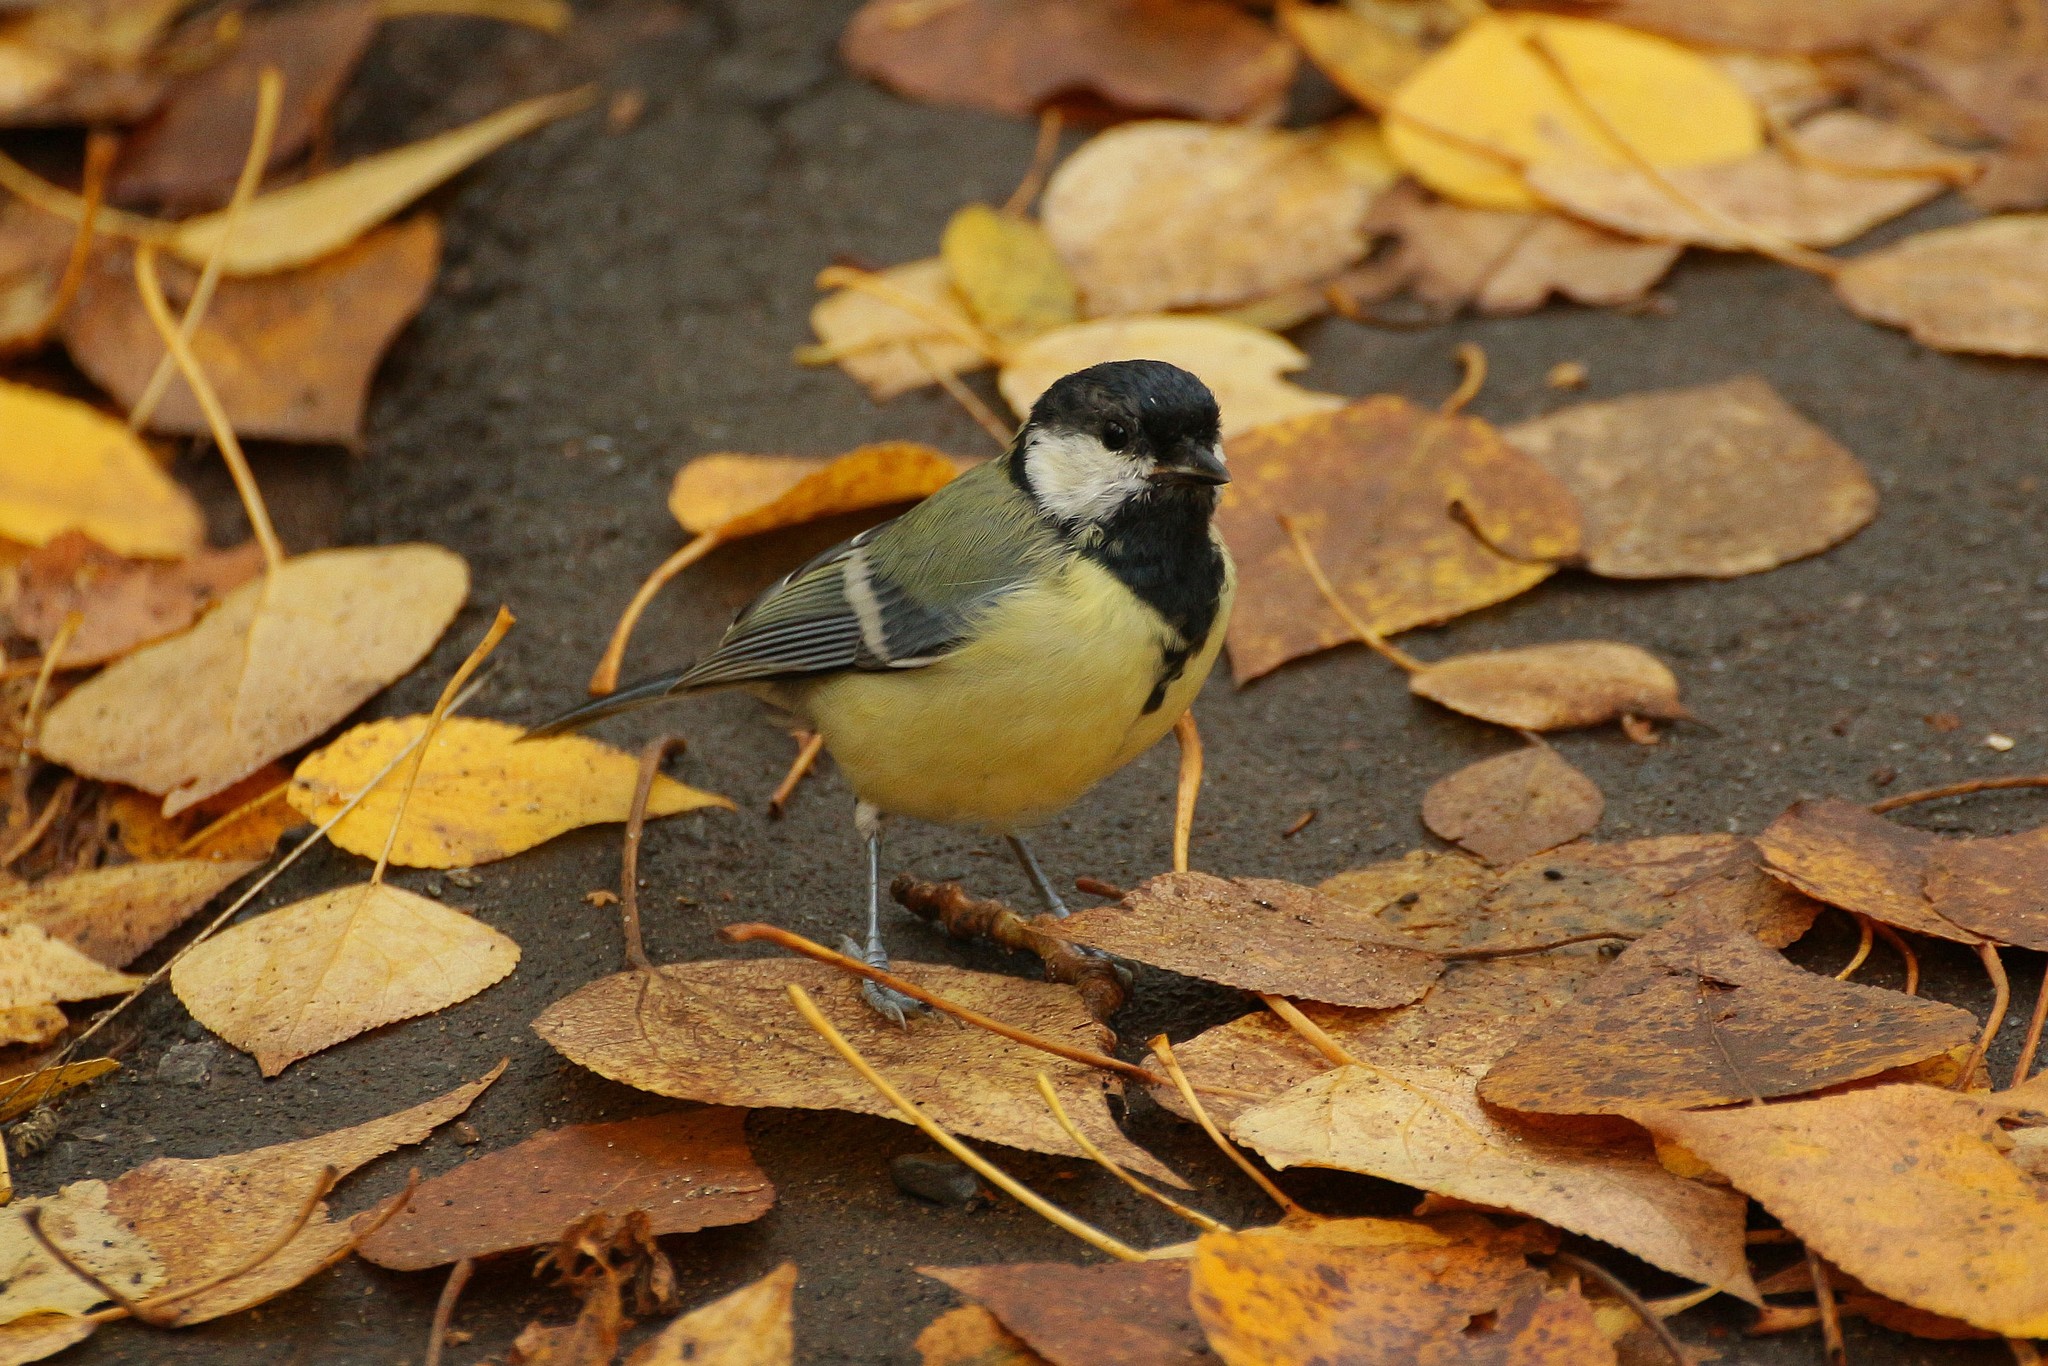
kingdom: Animalia
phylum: Chordata
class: Aves
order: Passeriformes
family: Paridae
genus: Parus
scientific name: Parus major
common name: Great tit
